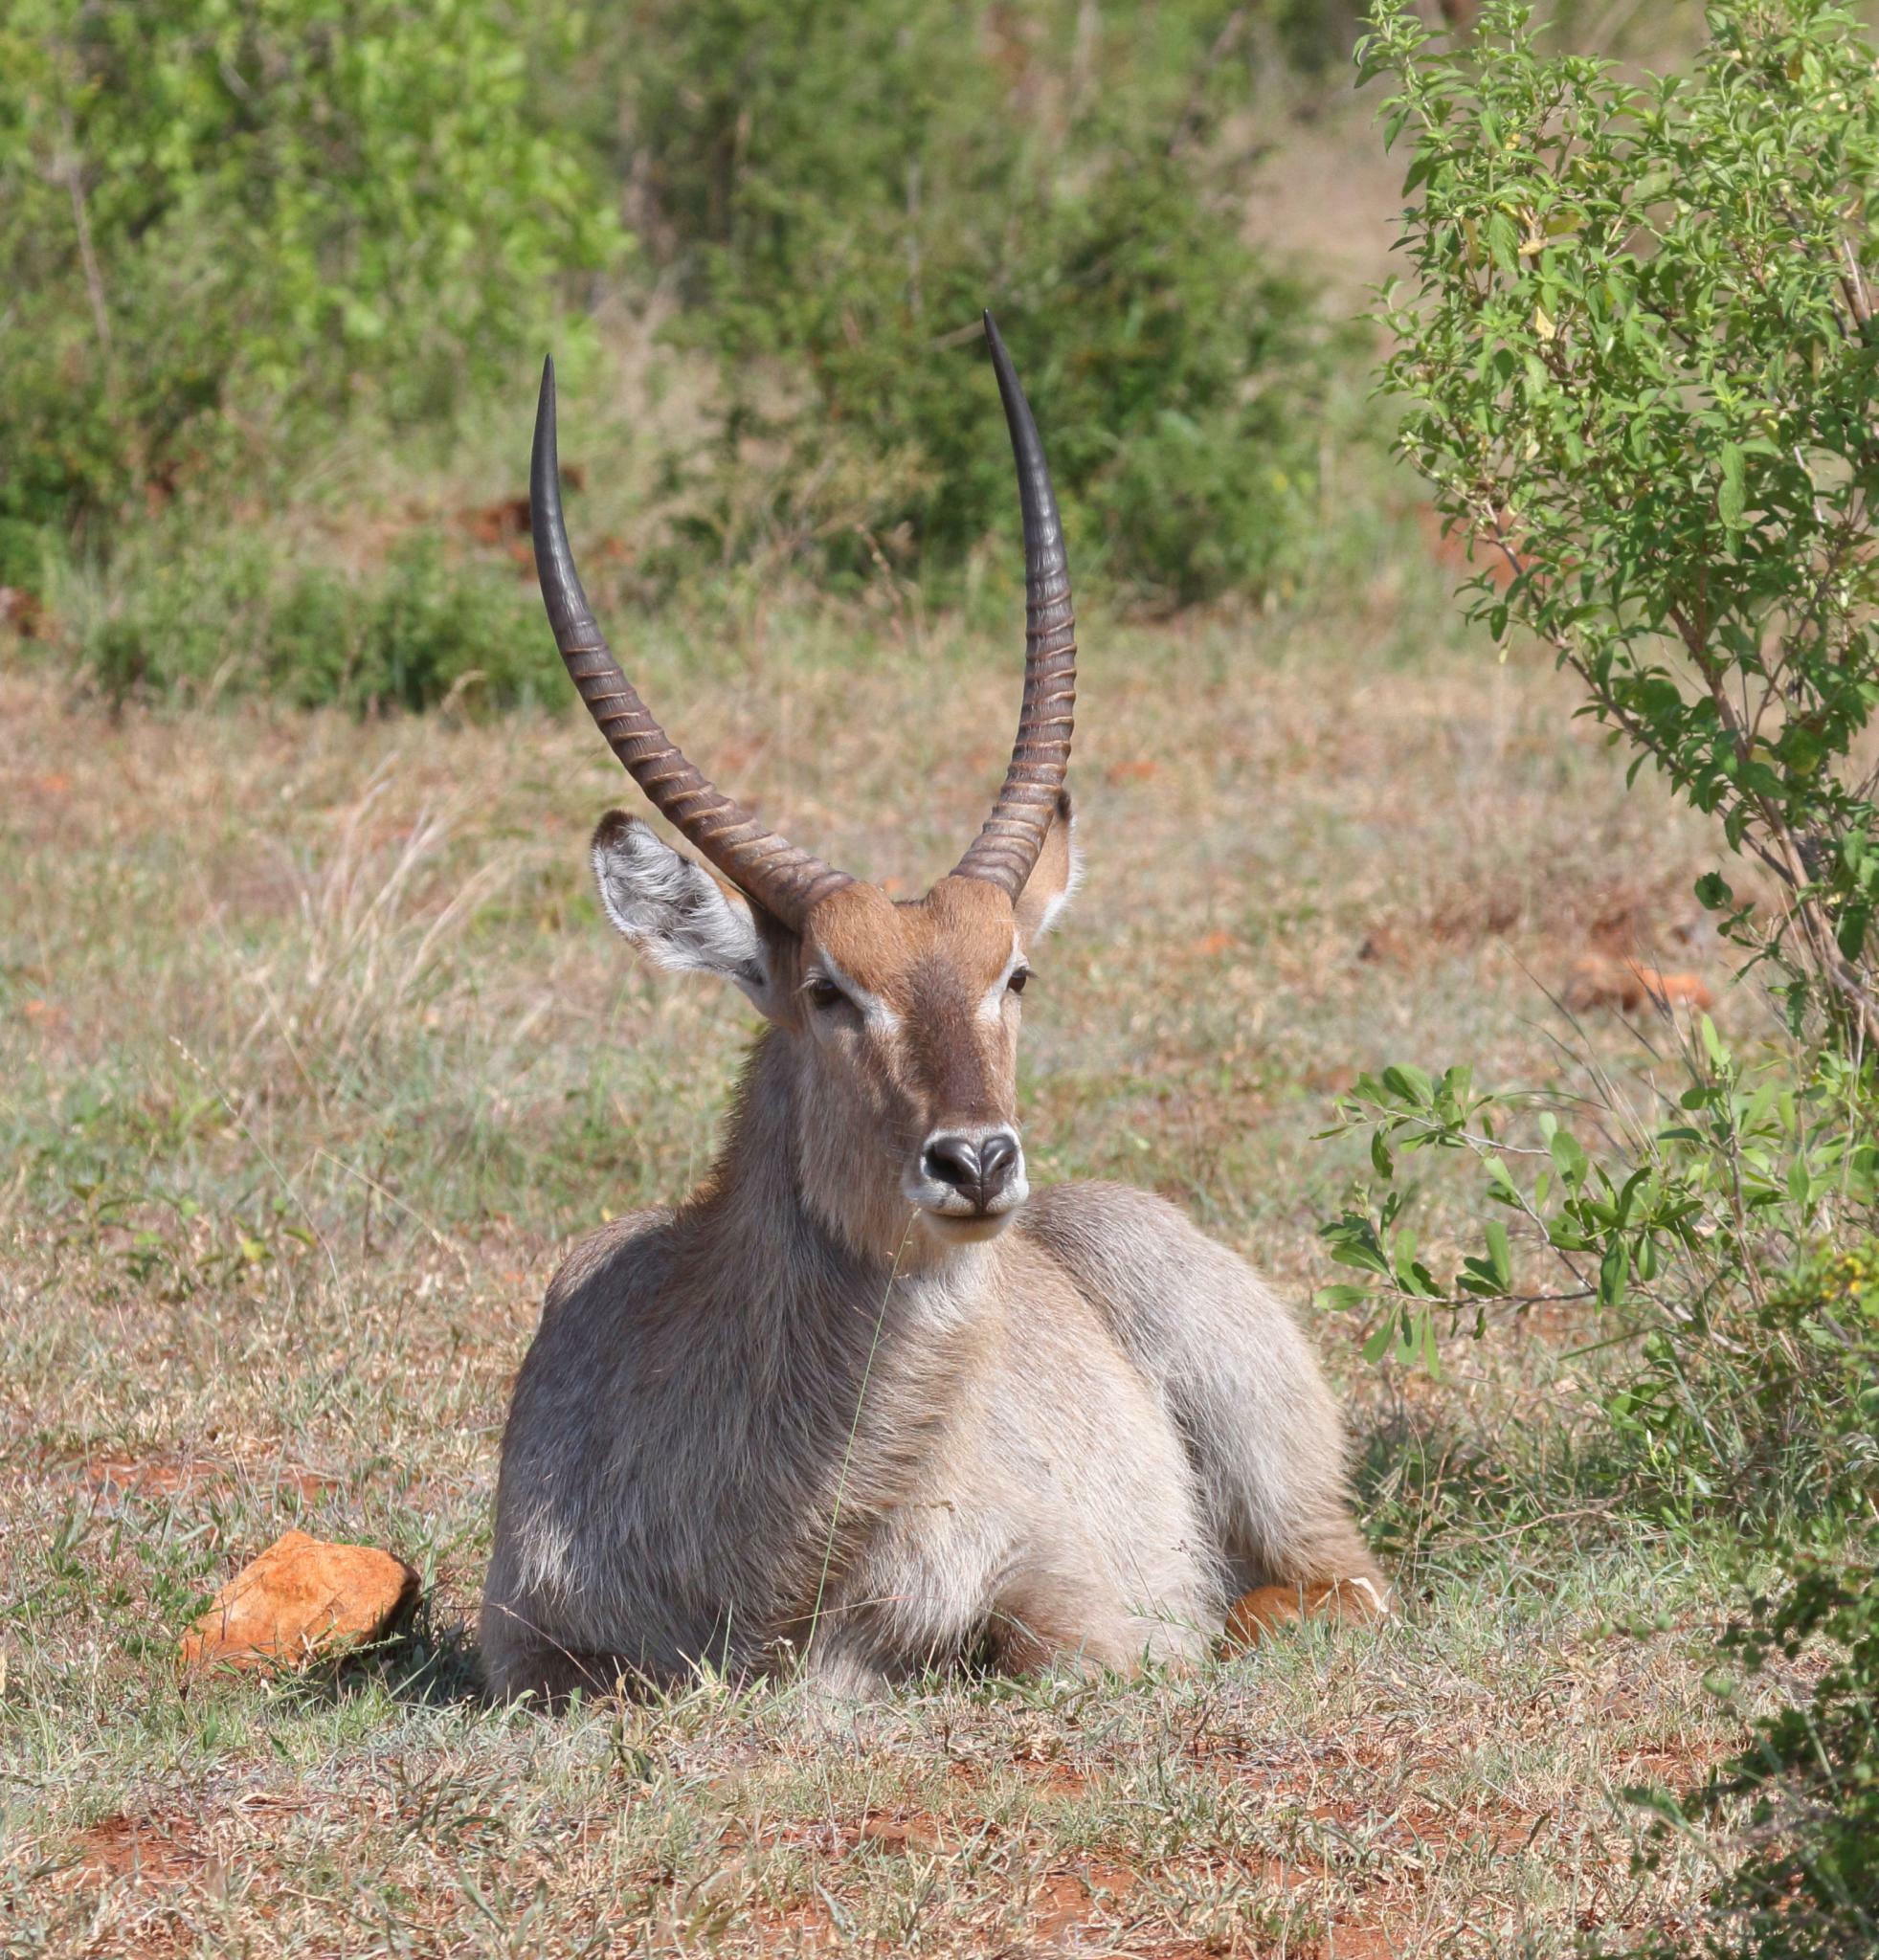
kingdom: Animalia
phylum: Chordata
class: Mammalia
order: Artiodactyla
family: Bovidae
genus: Kobus
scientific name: Kobus ellipsiprymnus
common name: Waterbuck
